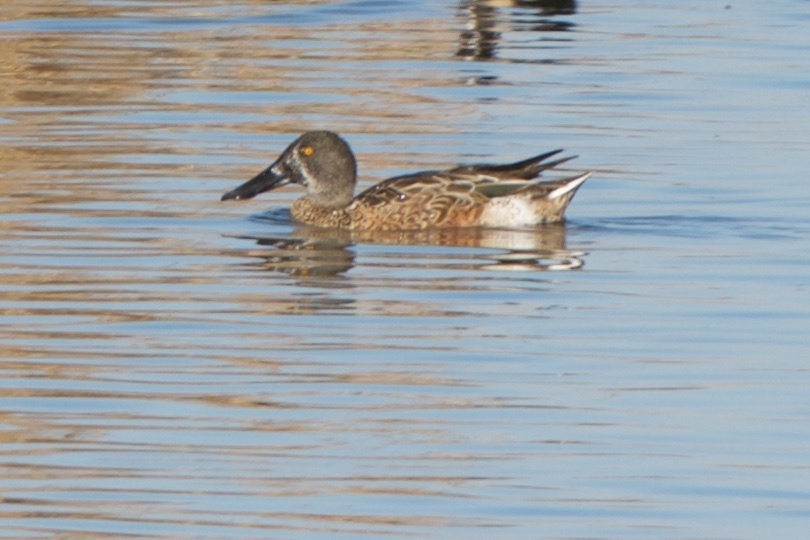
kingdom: Animalia
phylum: Chordata
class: Aves
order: Anseriformes
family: Anatidae
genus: Spatula
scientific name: Spatula clypeata
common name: Northern shoveler
